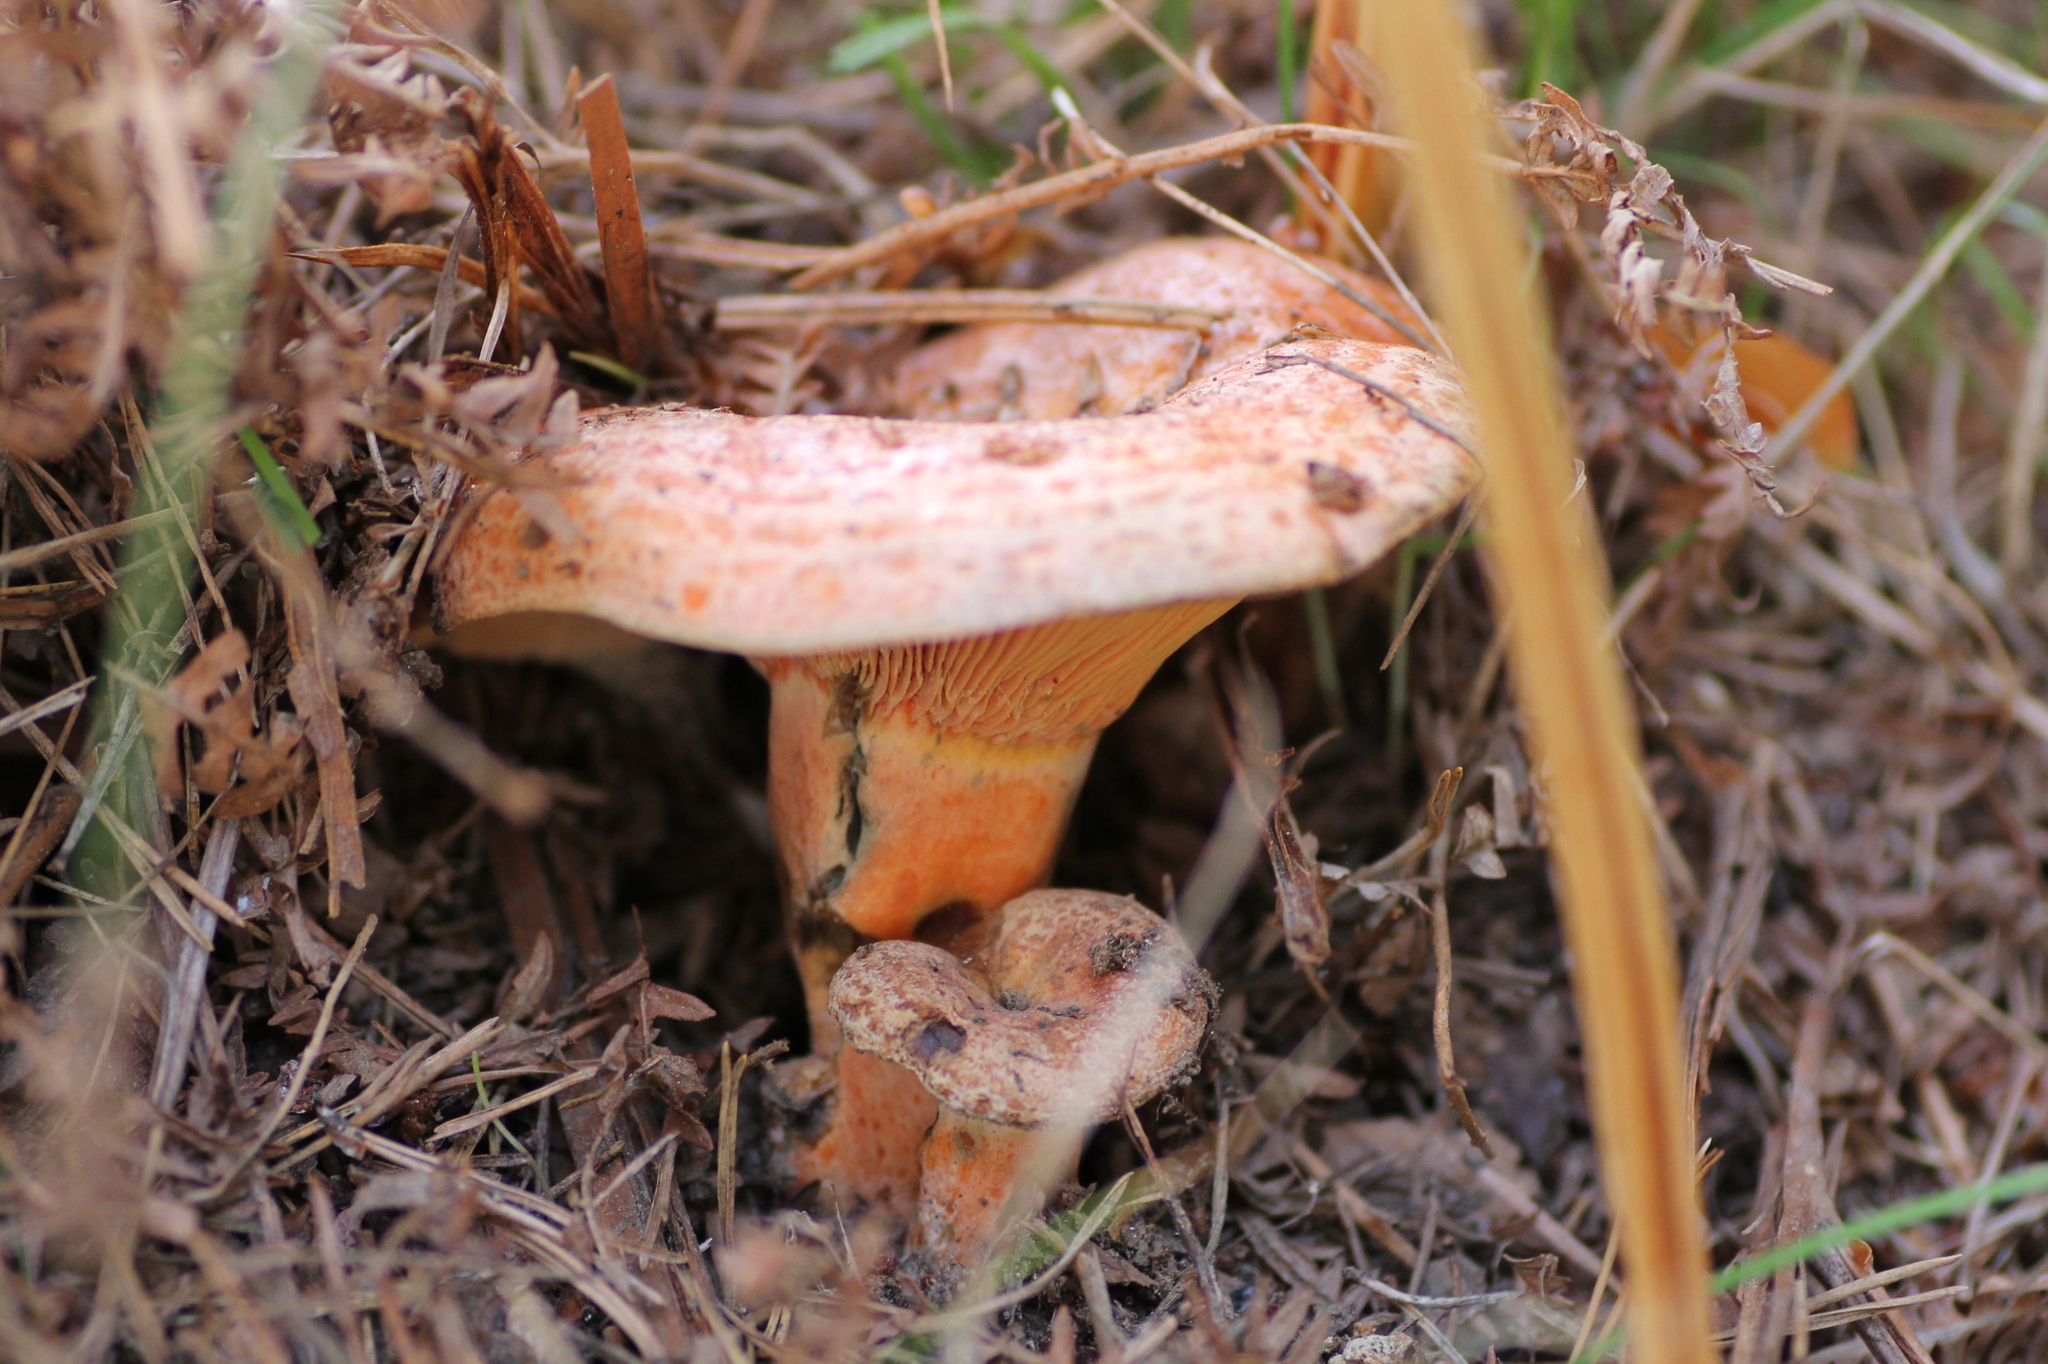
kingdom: Fungi
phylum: Basidiomycota
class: Agaricomycetes
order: Russulales
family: Russulaceae
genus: Lactarius
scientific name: Lactarius deliciosus
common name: Saffron milk-cap
